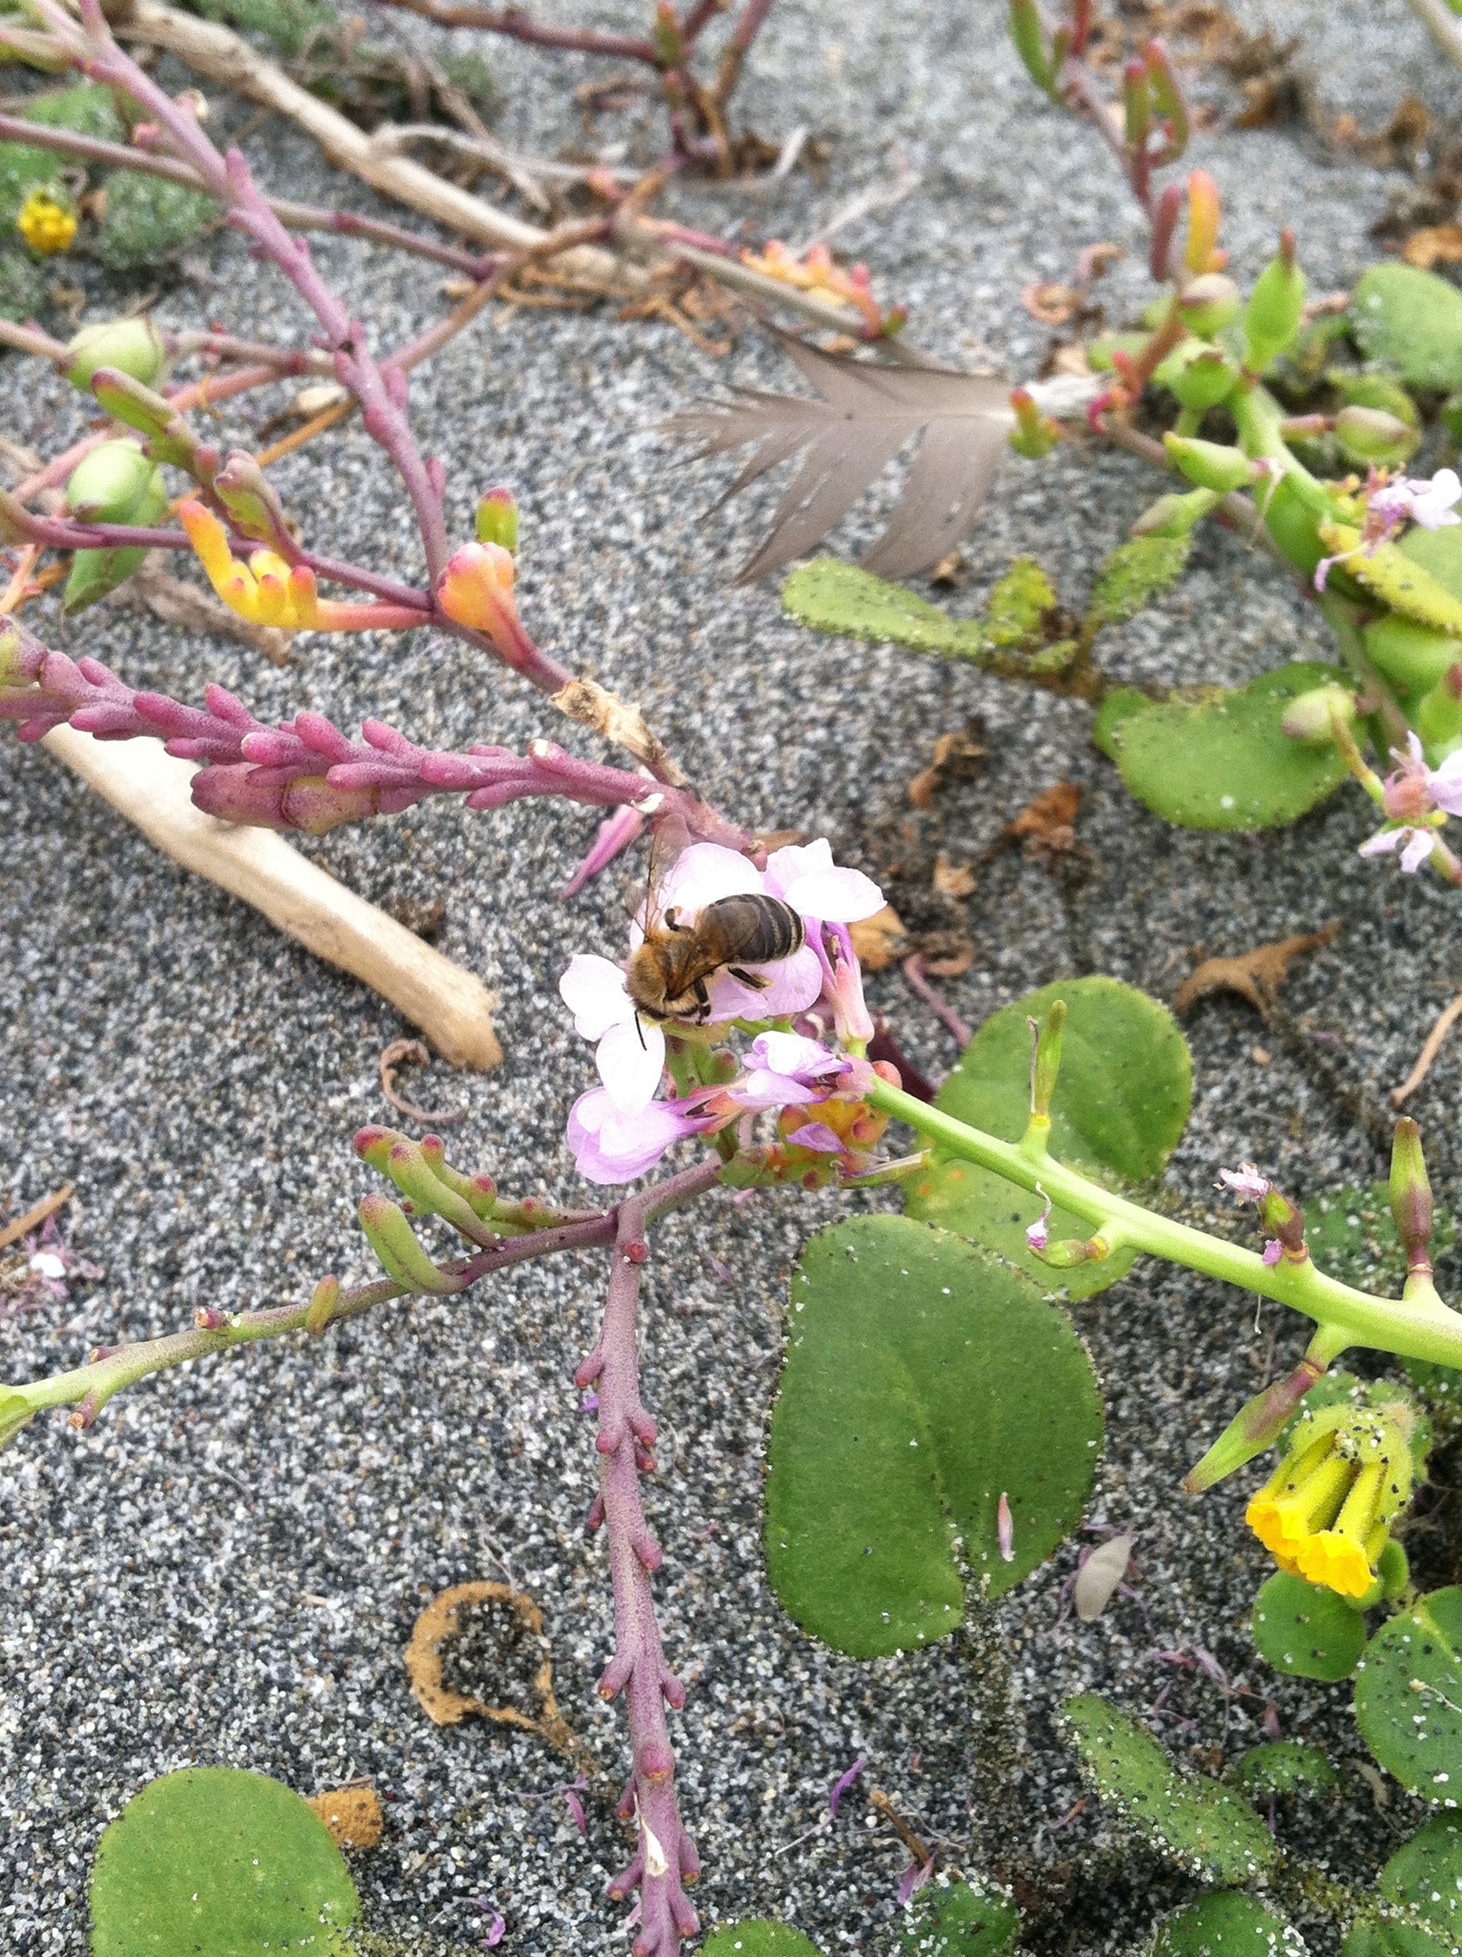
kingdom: Animalia
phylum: Arthropoda
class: Insecta
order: Hymenoptera
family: Apidae
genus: Apis
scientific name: Apis mellifera
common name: Honey bee
